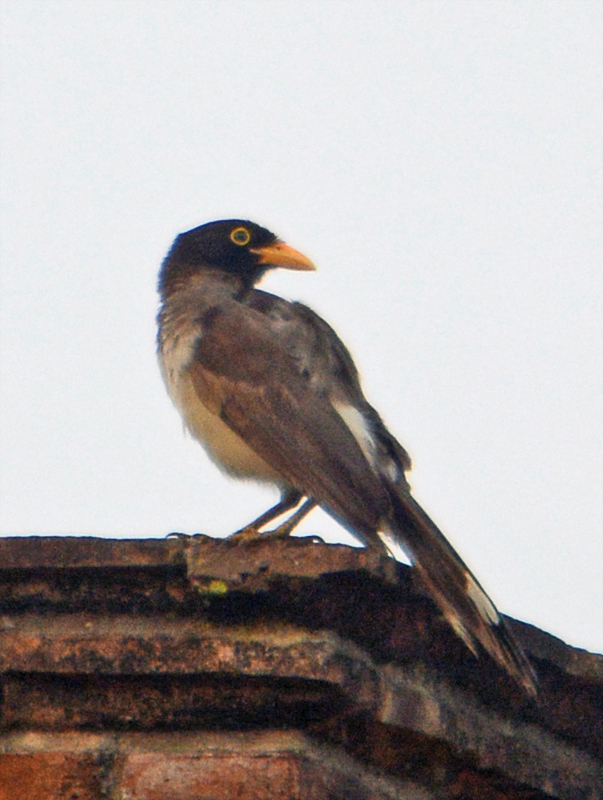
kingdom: Animalia
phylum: Chordata
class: Aves
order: Passeriformes
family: Corvidae
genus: Psilorhinus
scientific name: Psilorhinus morio
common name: Brown jay
